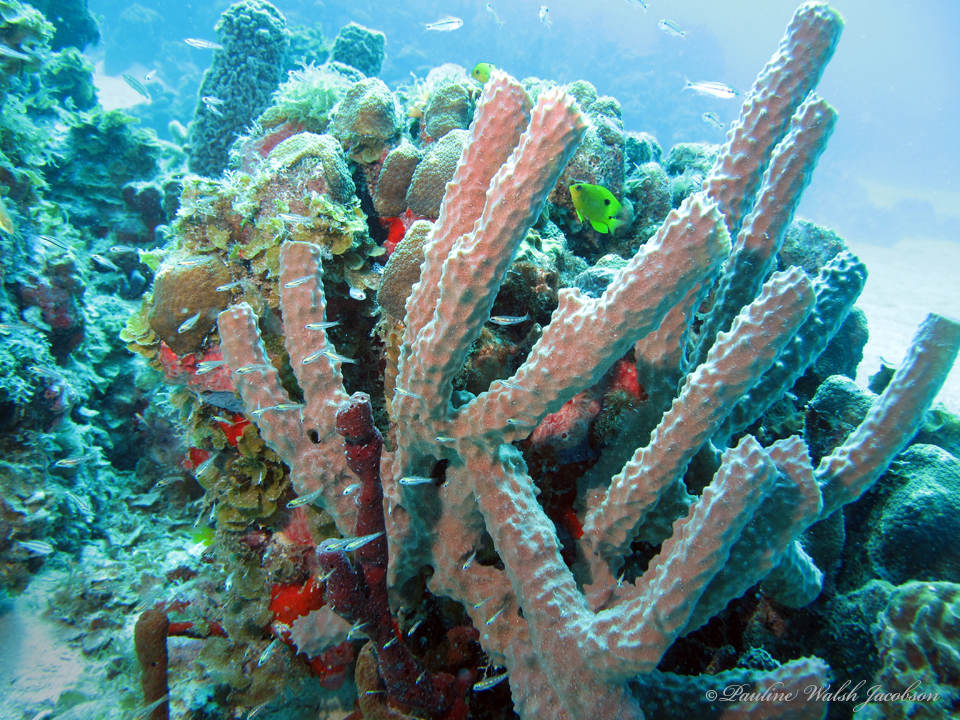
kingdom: Animalia
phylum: Porifera
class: Demospongiae
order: Haplosclerida
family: Callyspongiidae
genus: Callyspongia
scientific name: Callyspongia aculeata
